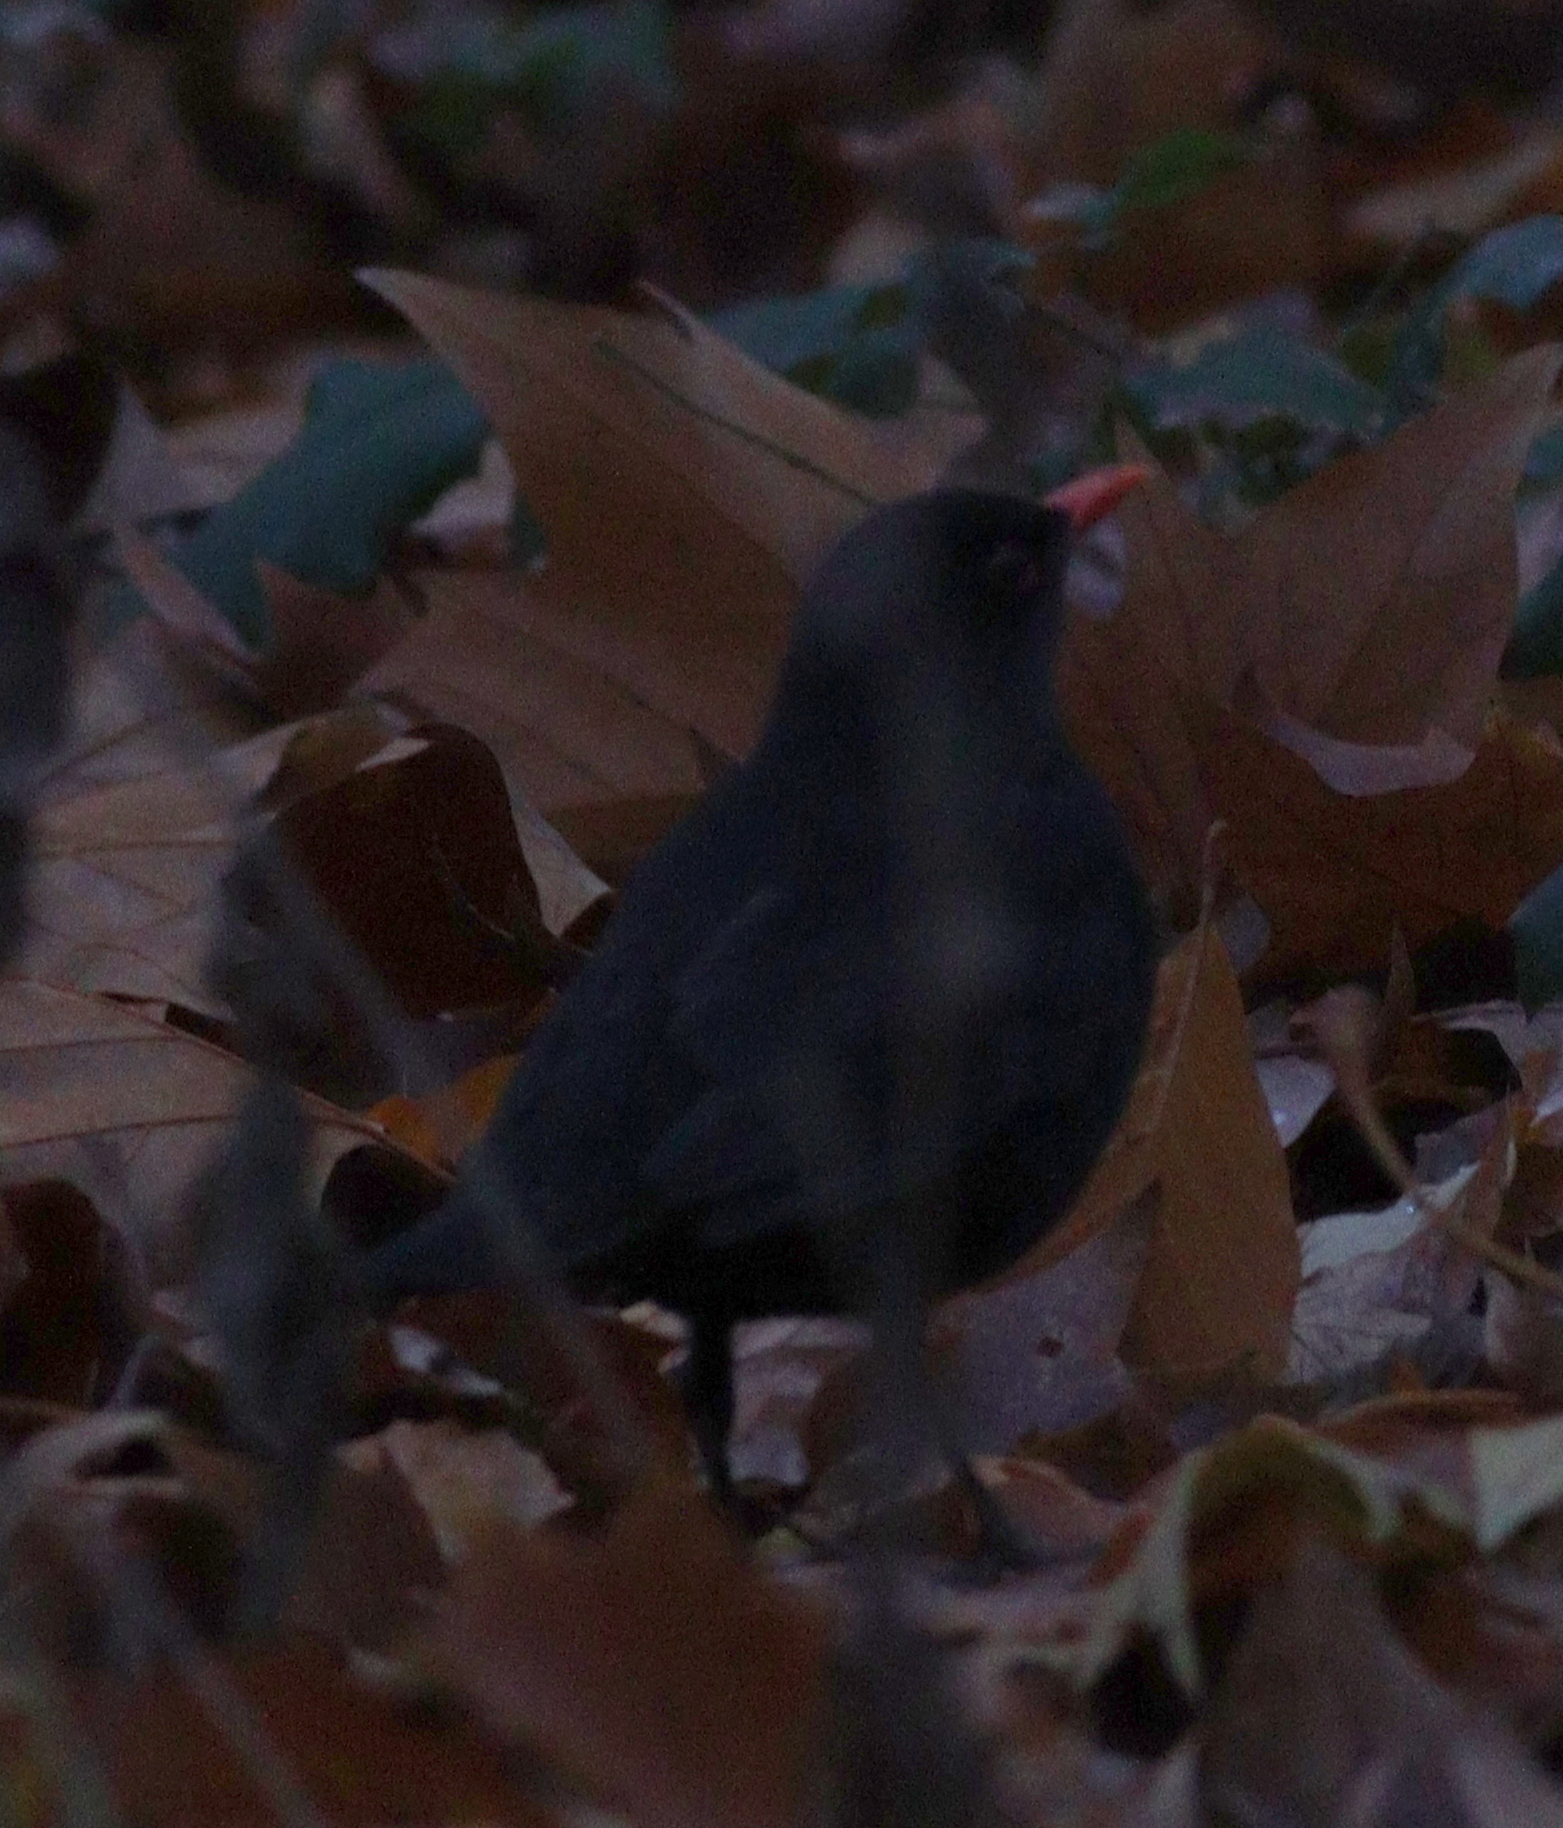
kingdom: Animalia
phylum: Chordata
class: Aves
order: Passeriformes
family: Turdidae
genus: Turdus
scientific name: Turdus merula
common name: Common blackbird
